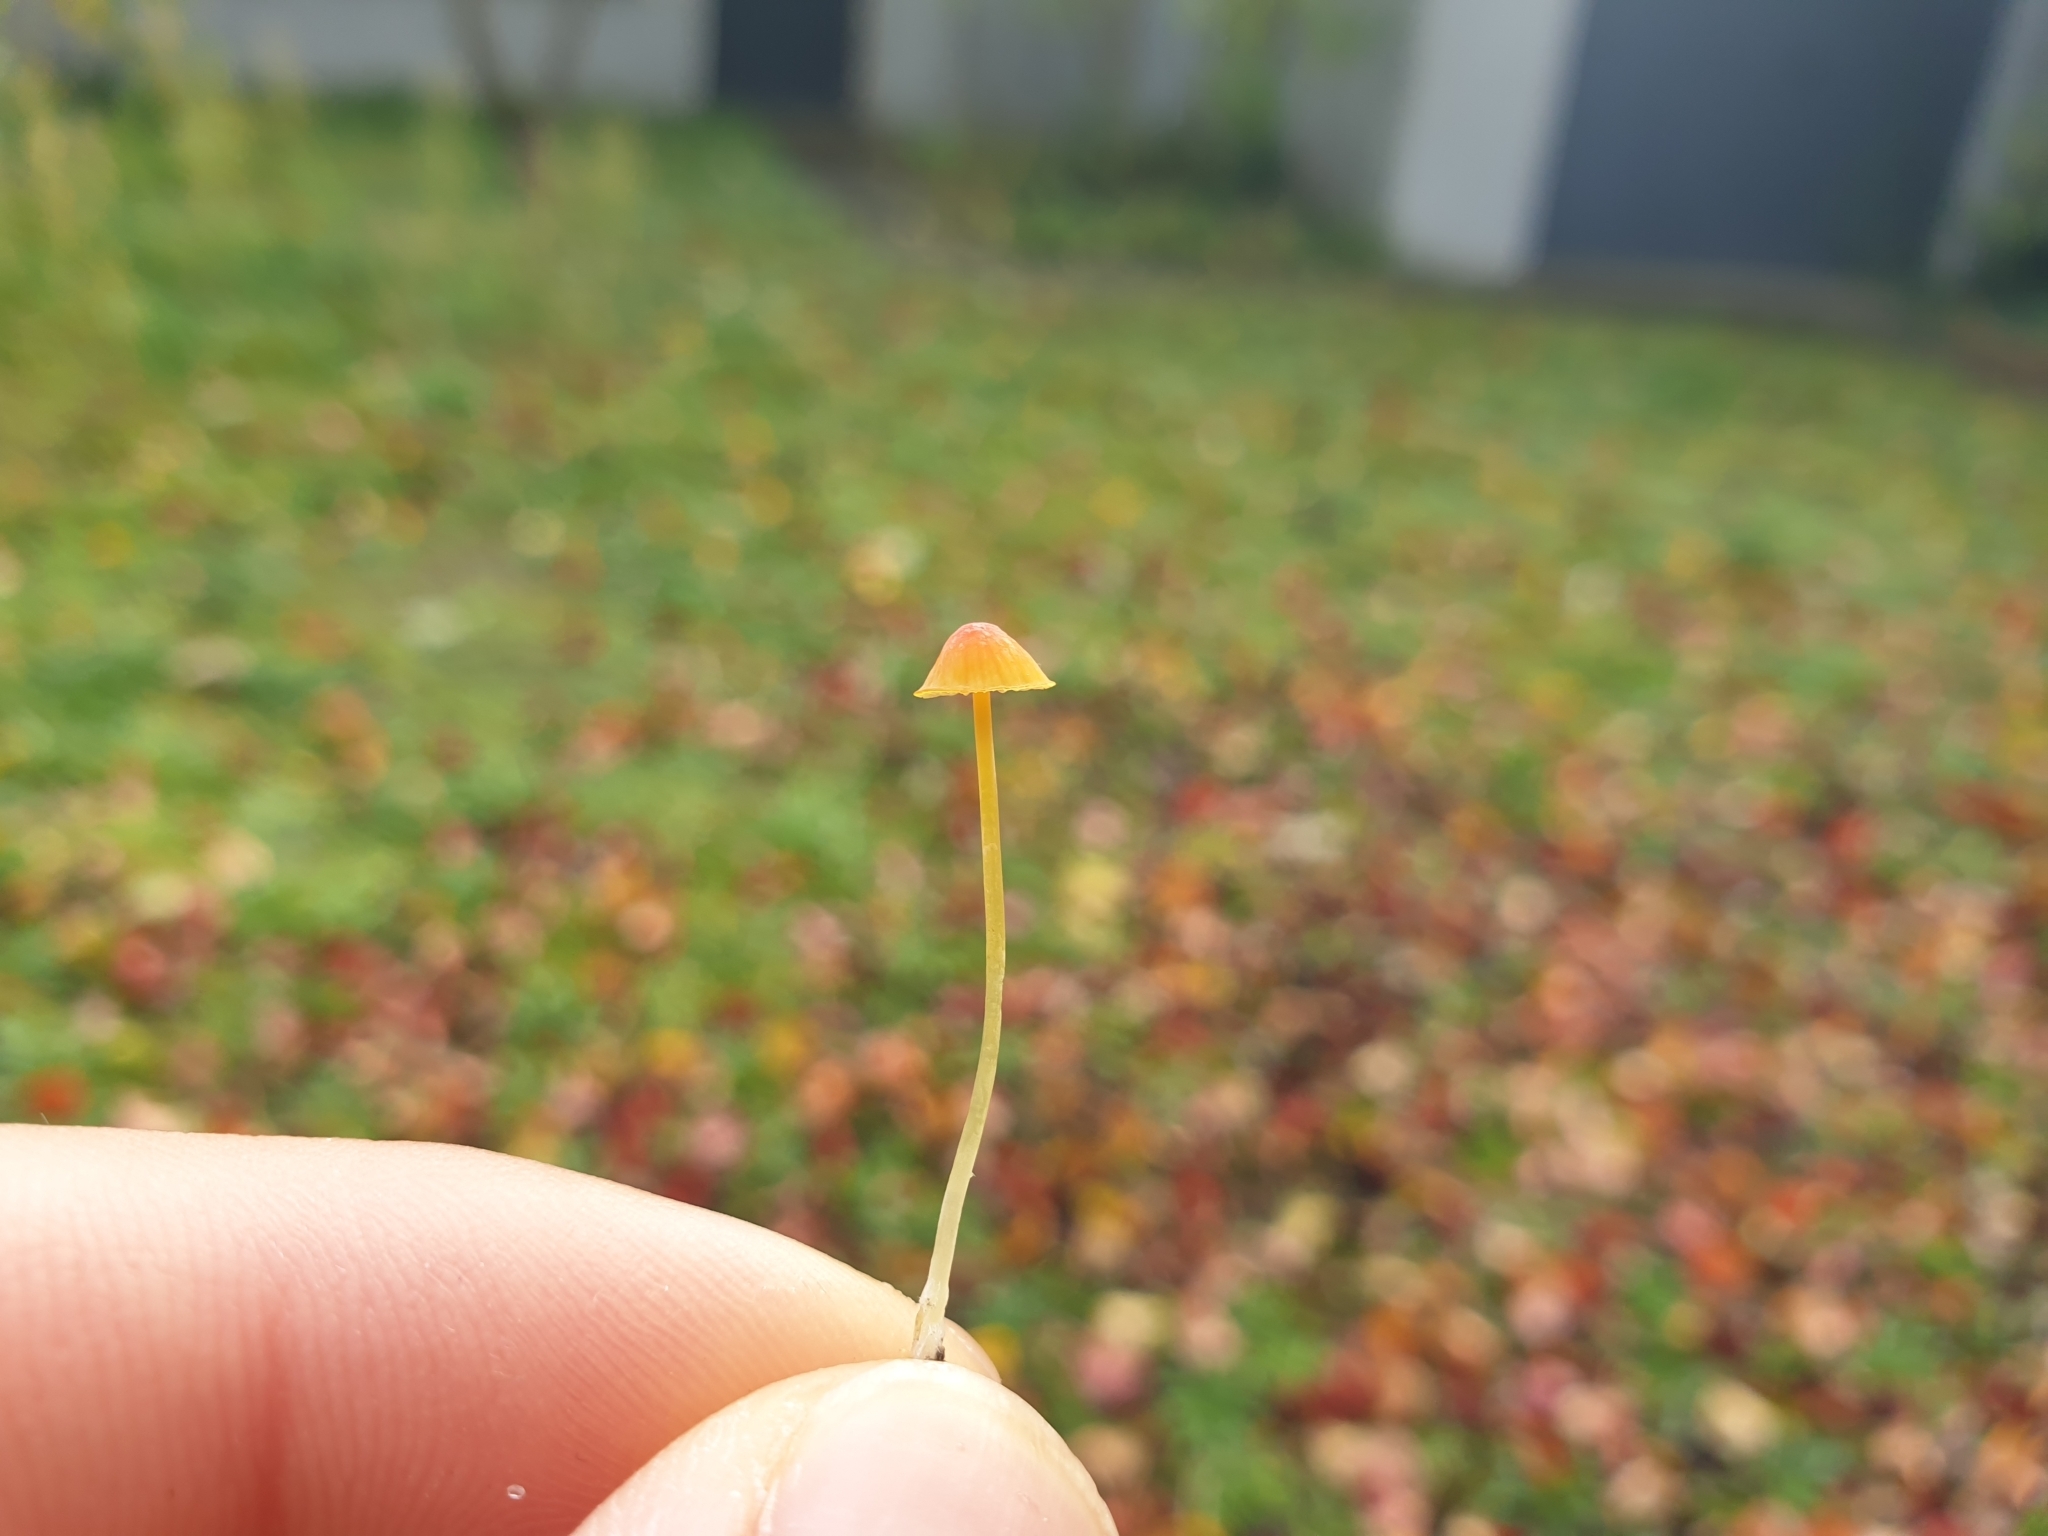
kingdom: Fungi
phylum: Basidiomycota
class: Agaricomycetes
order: Agaricales
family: Mycenaceae
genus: Mycena
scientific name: Mycena acicula
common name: Orange bonnet
